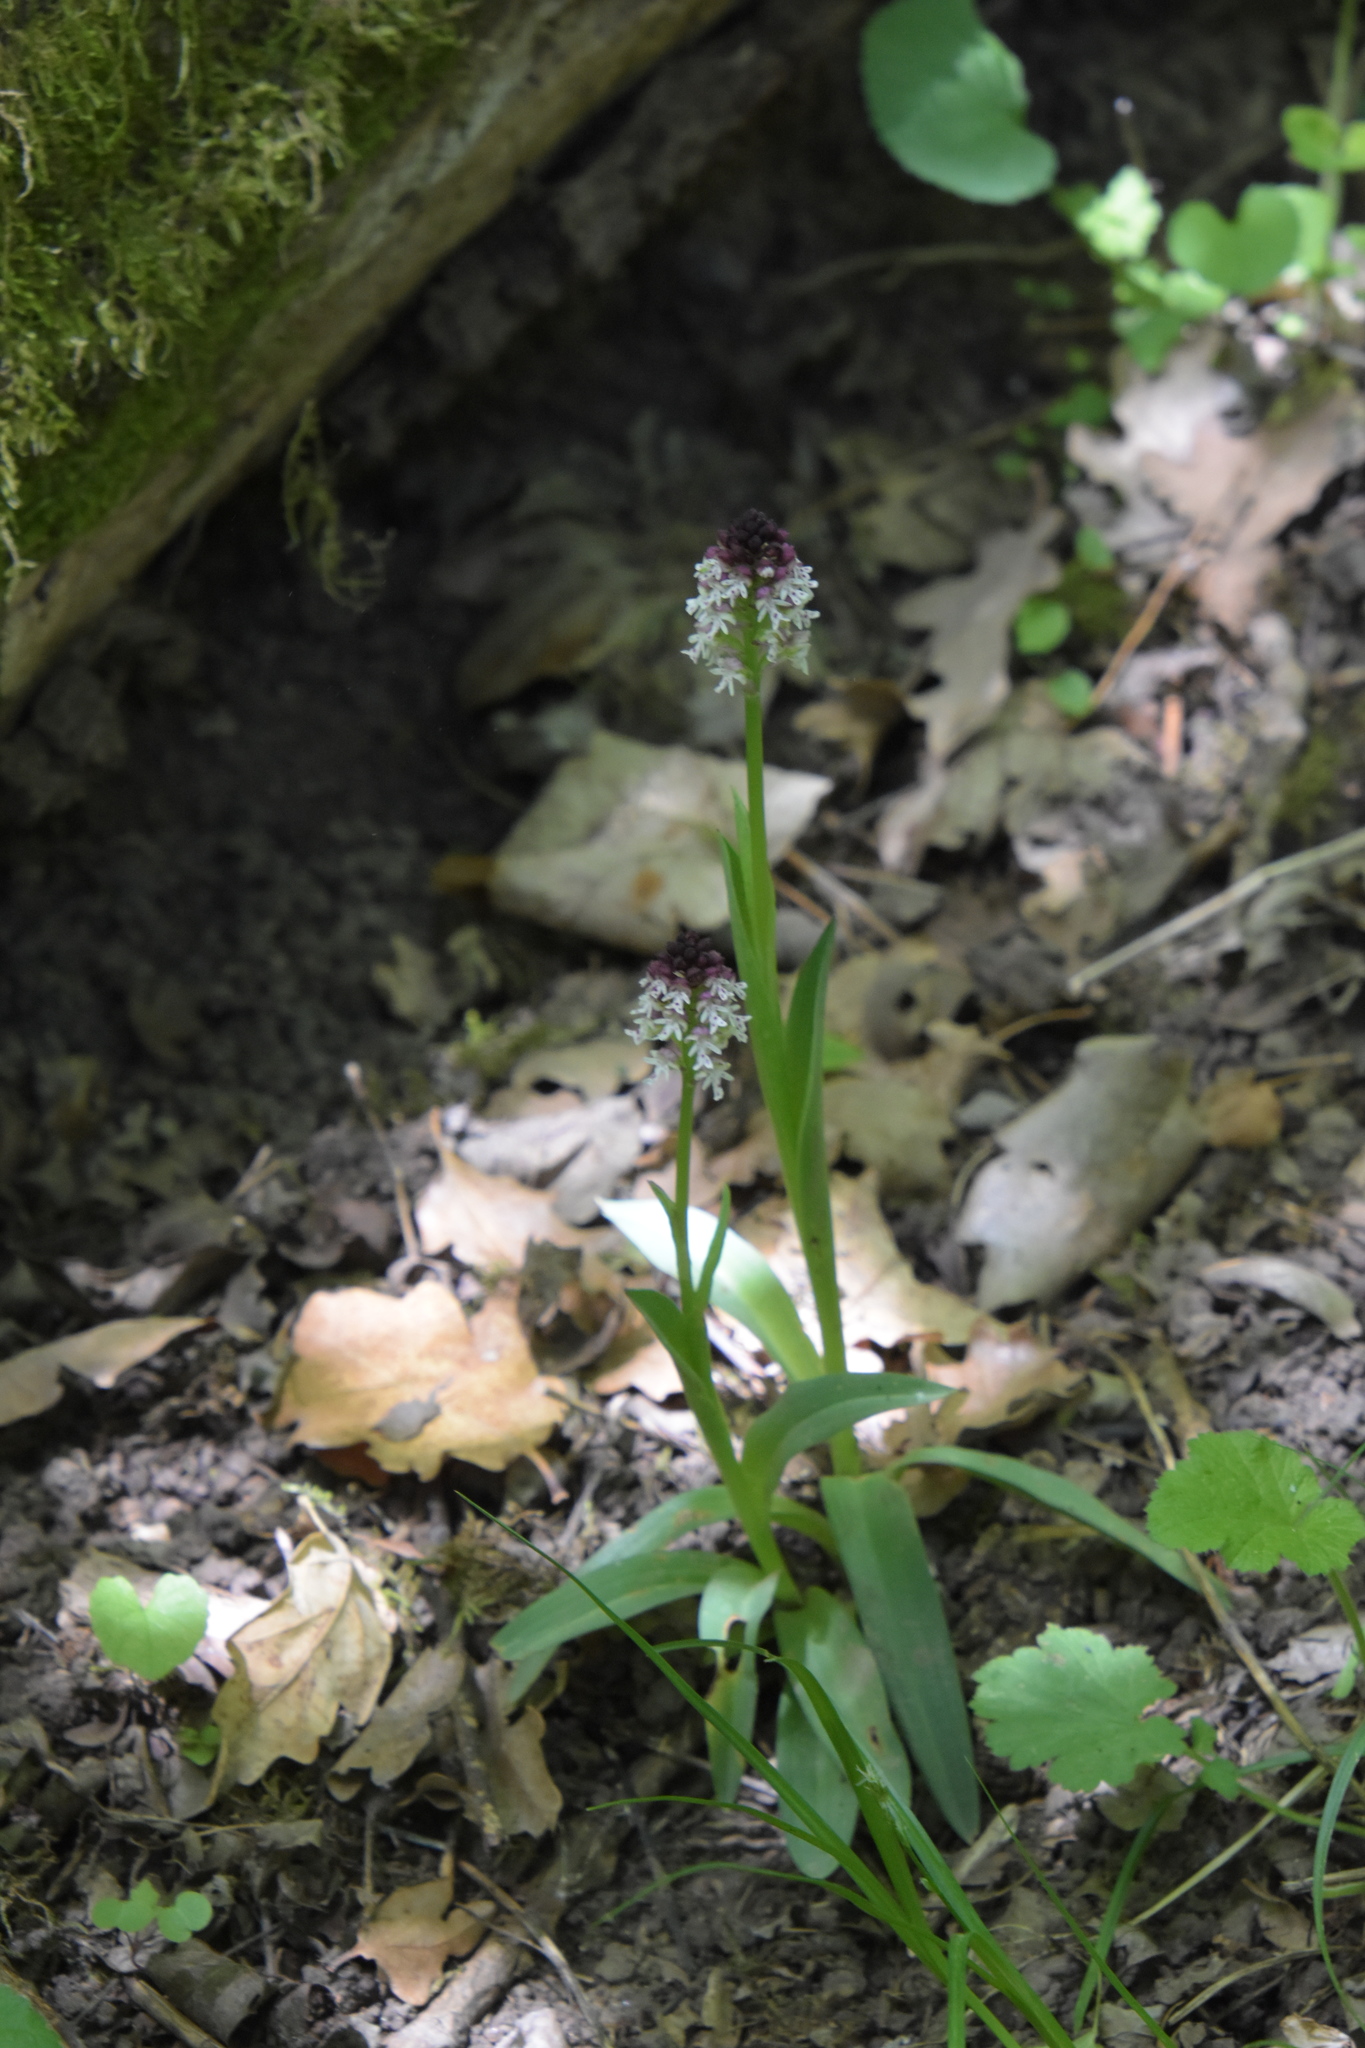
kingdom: Plantae
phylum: Tracheophyta
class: Liliopsida
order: Asparagales
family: Orchidaceae
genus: Neotinea
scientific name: Neotinea ustulata
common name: Burnt orchid
